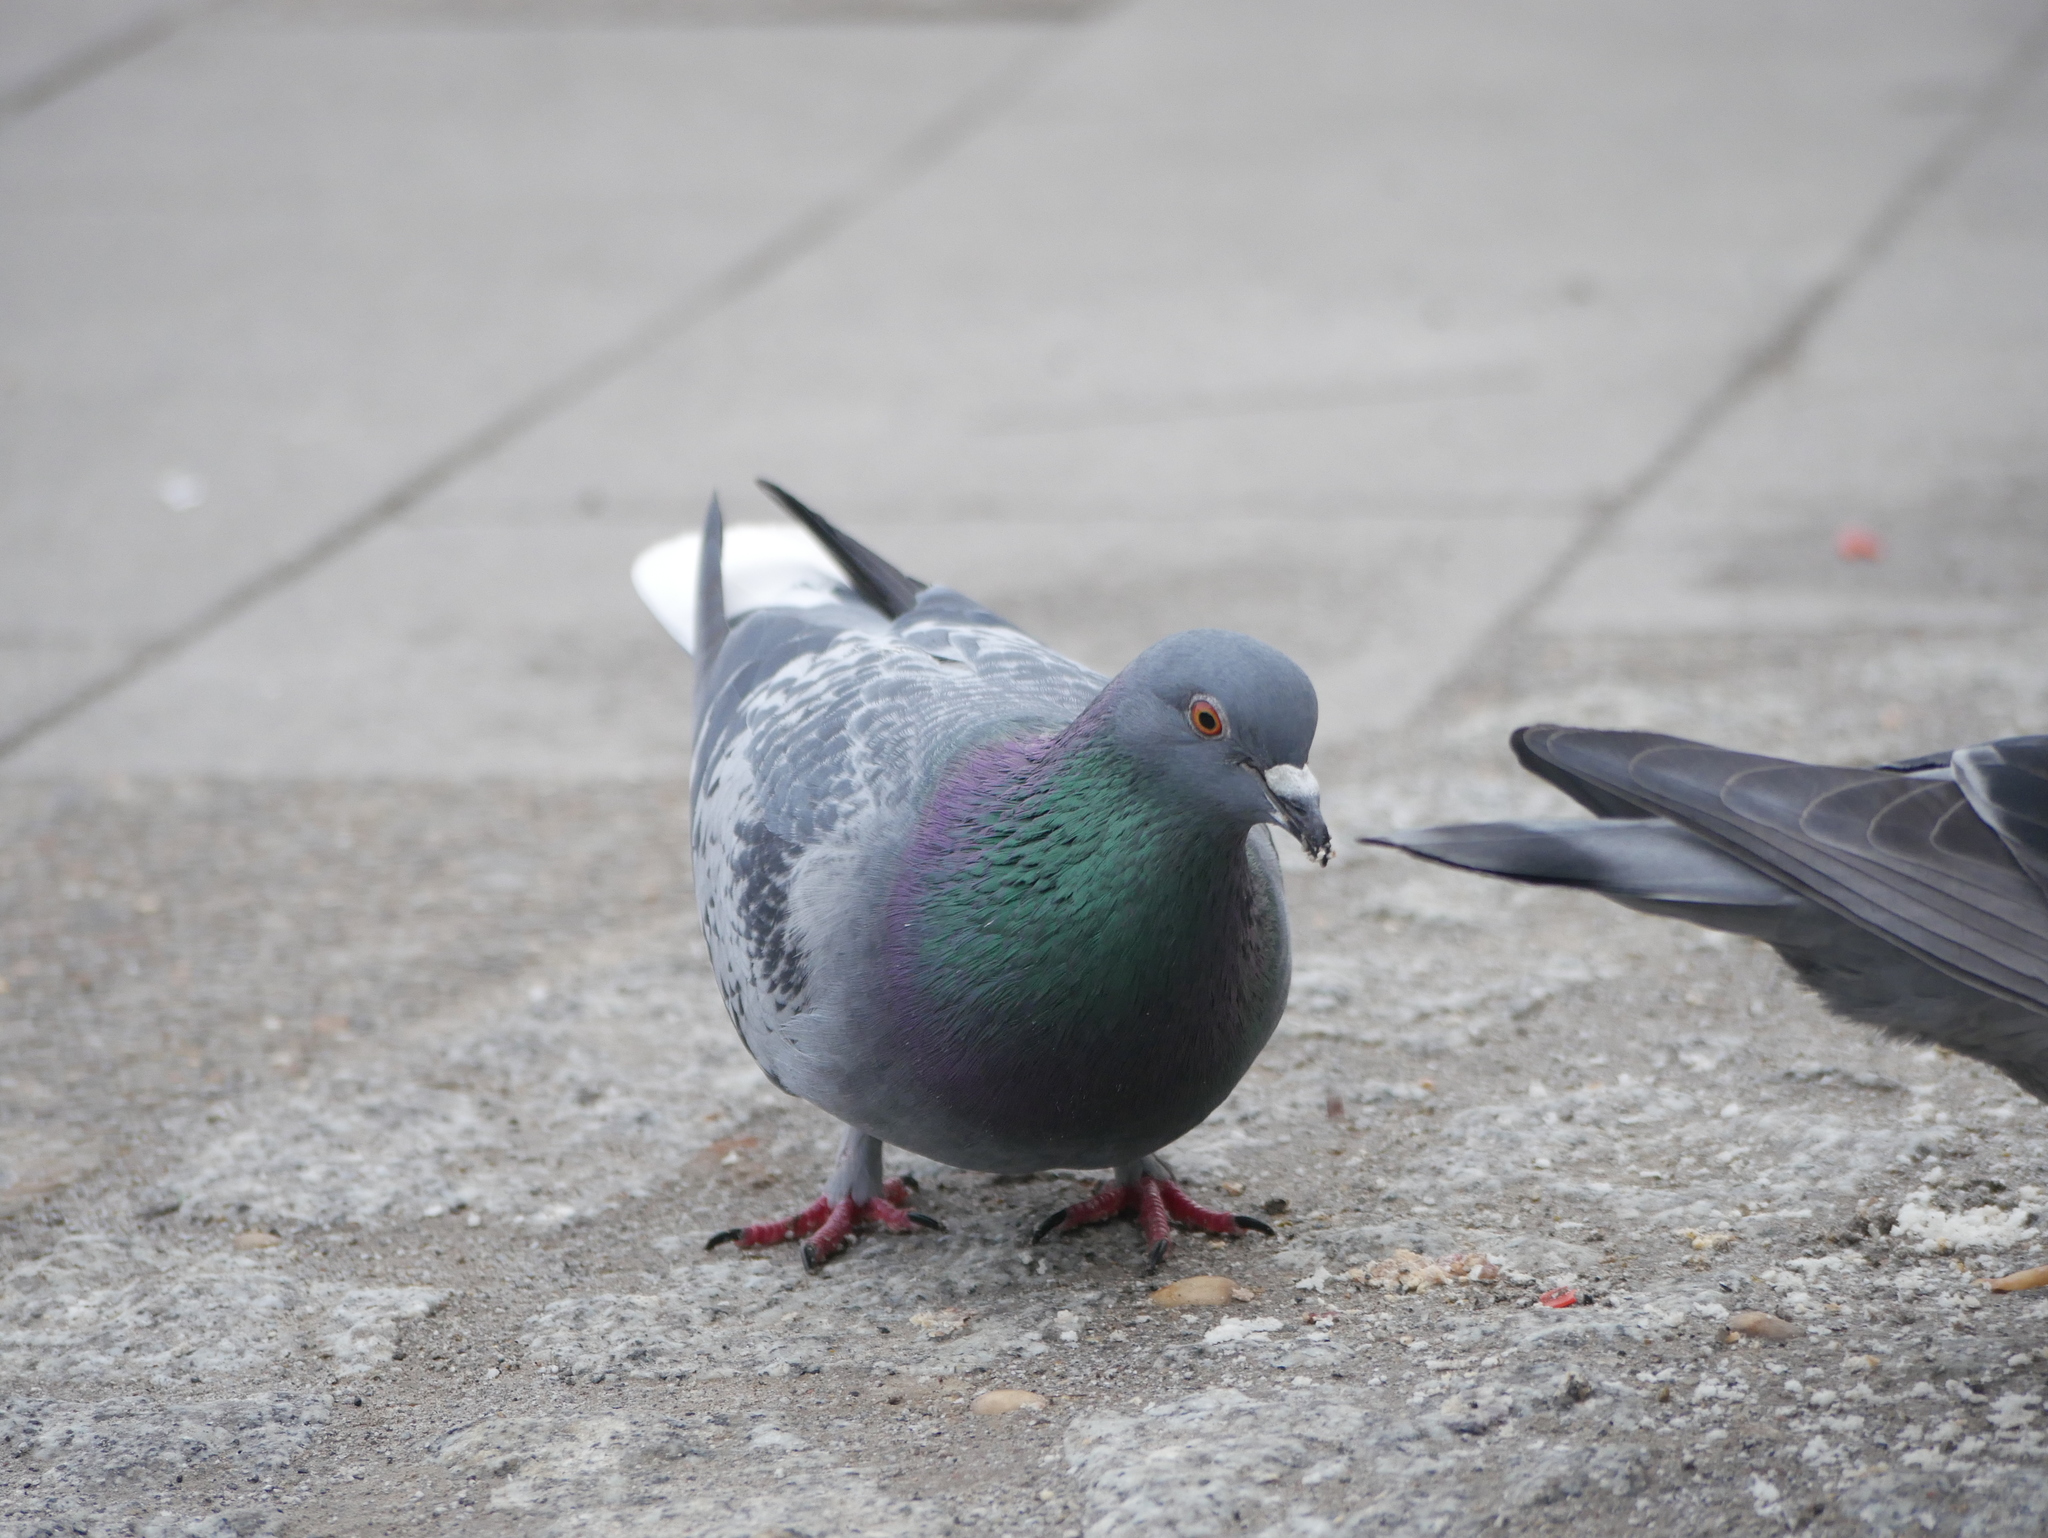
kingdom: Animalia
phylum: Chordata
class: Aves
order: Columbiformes
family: Columbidae
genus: Columba
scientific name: Columba livia
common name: Rock pigeon
